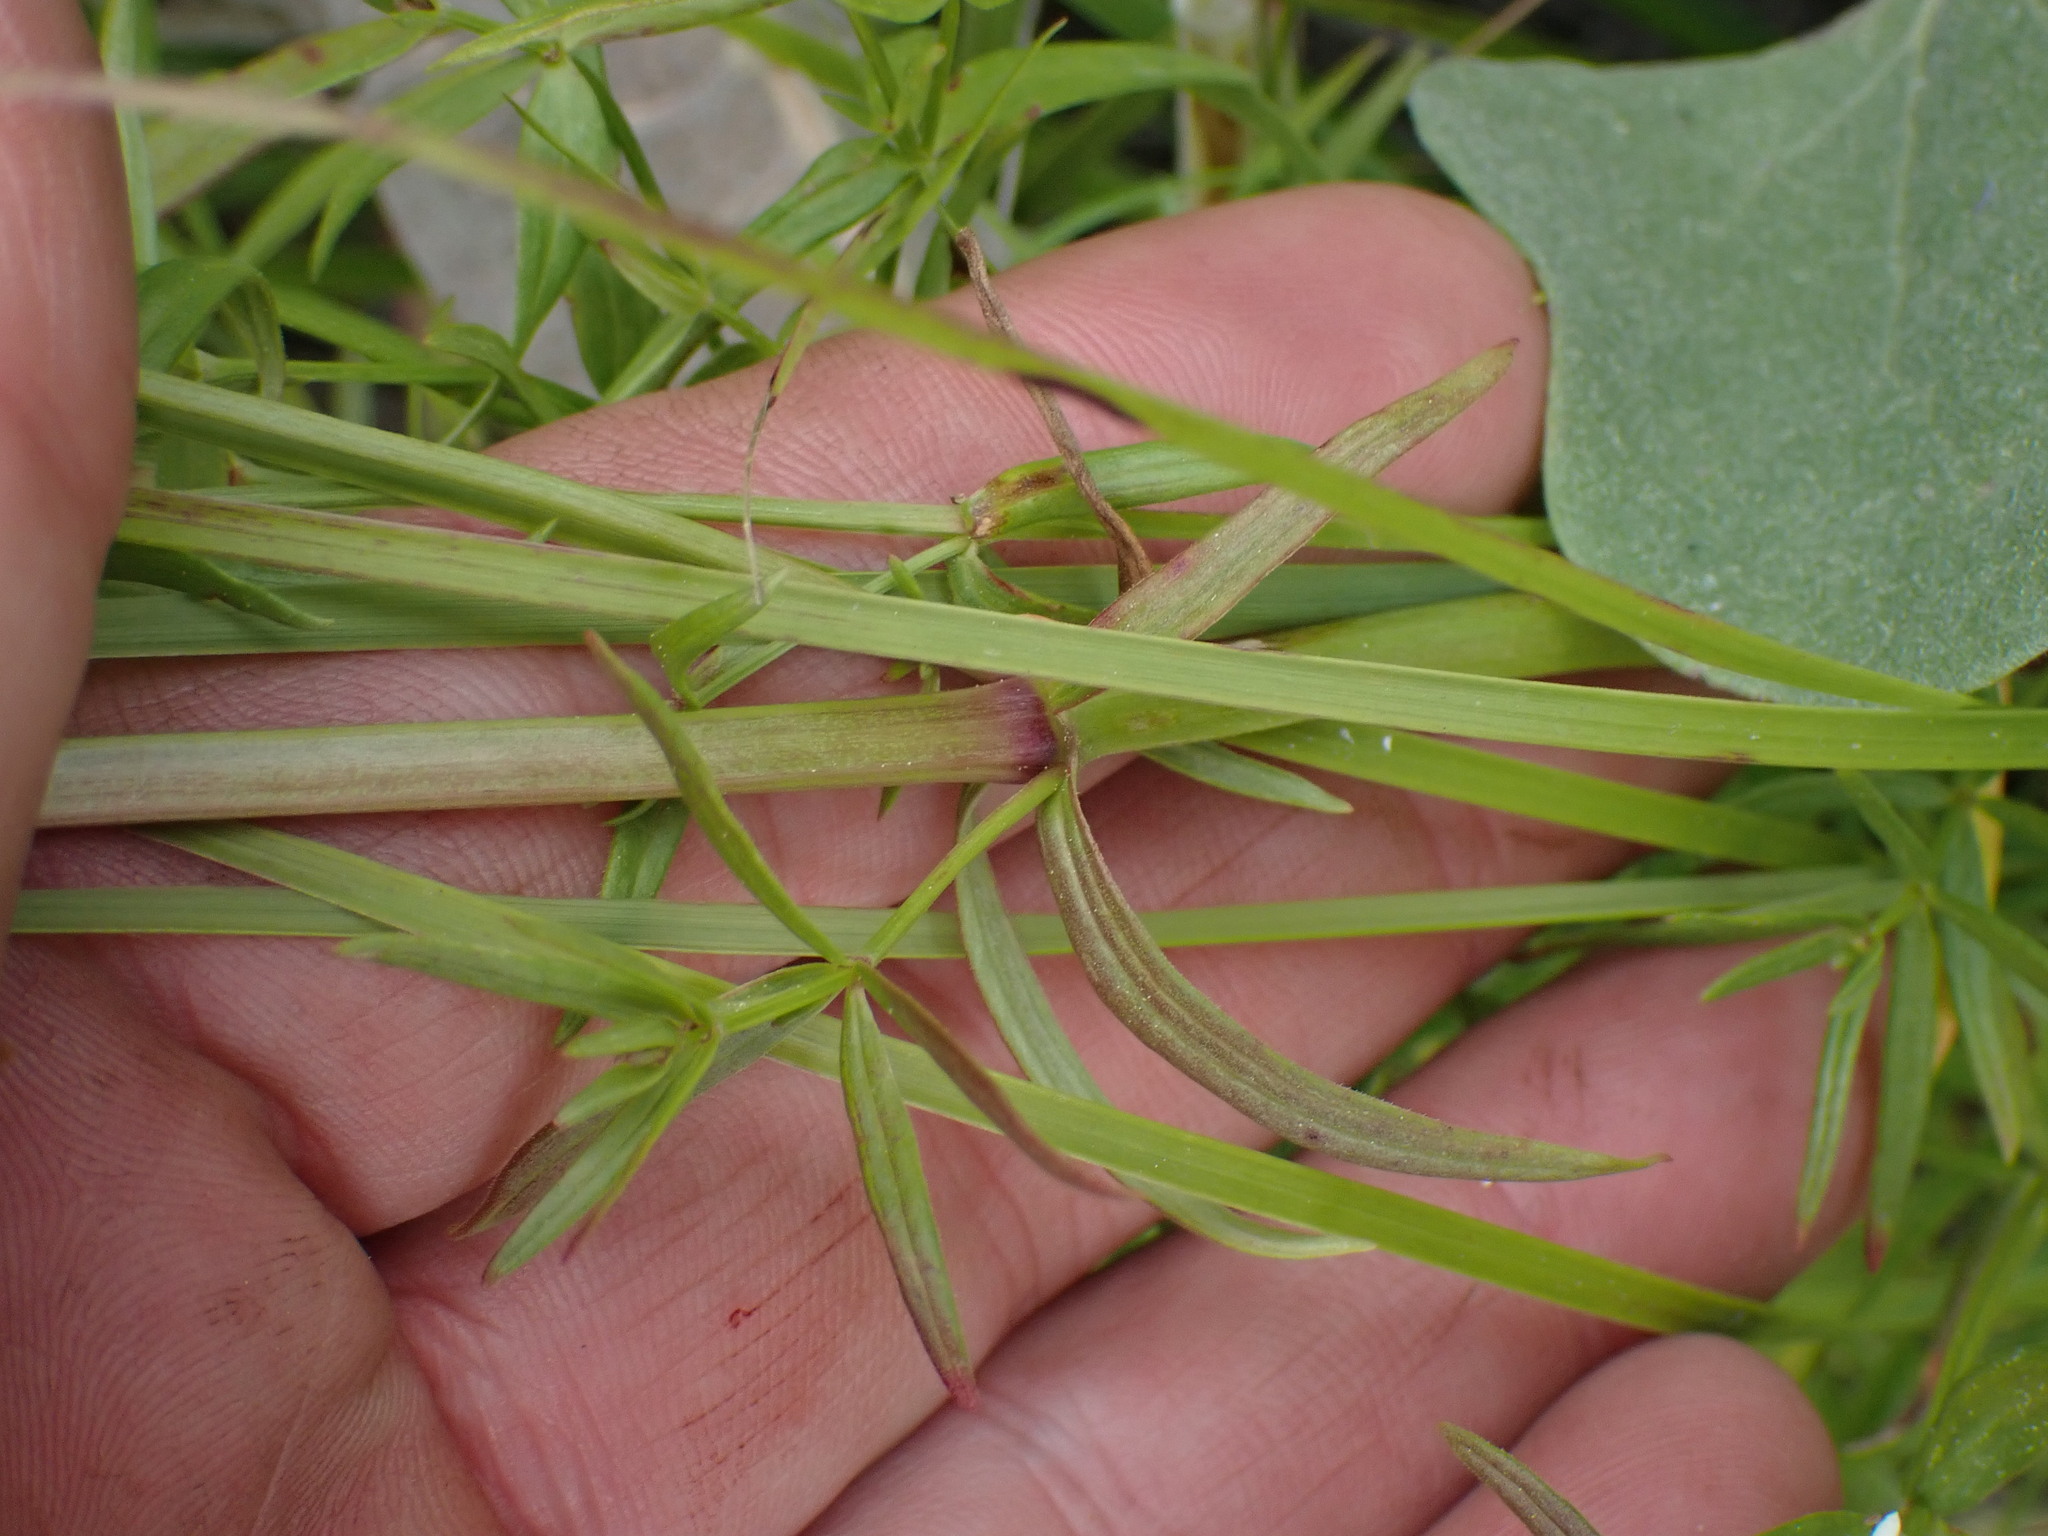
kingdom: Plantae
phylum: Tracheophyta
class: Magnoliopsida
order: Gentianales
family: Rubiaceae
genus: Galium
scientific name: Galium boreale
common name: Northern bedstraw
